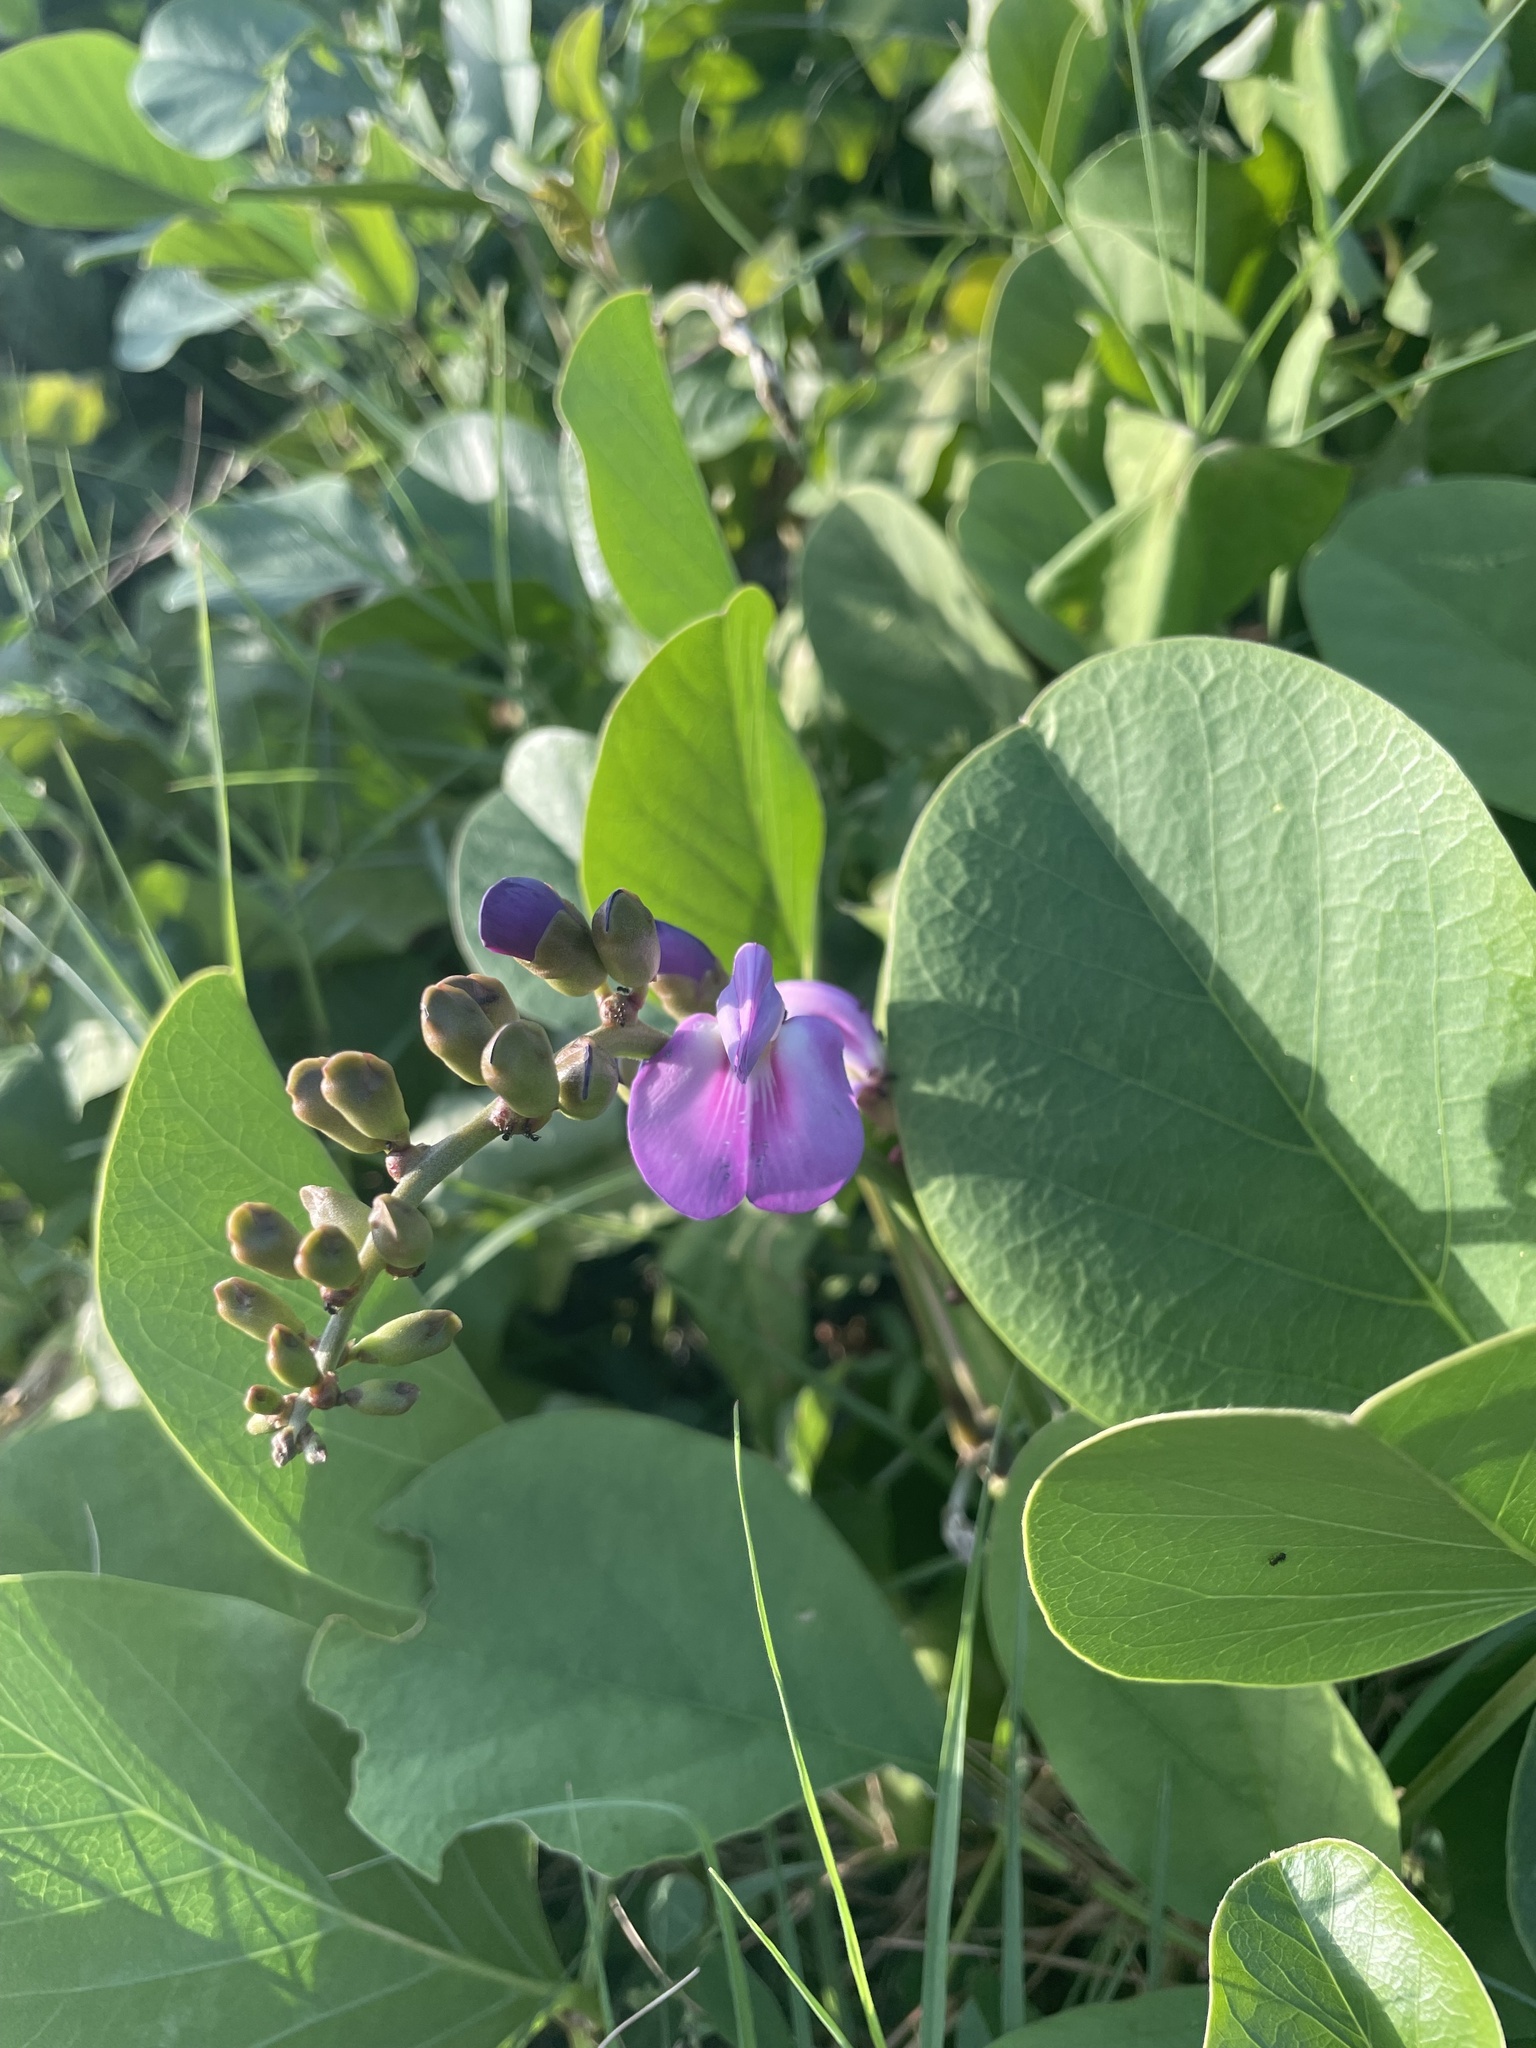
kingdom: Plantae
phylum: Tracheophyta
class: Magnoliopsida
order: Fabales
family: Fabaceae
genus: Canavalia
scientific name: Canavalia rosea
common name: Beach-bean
